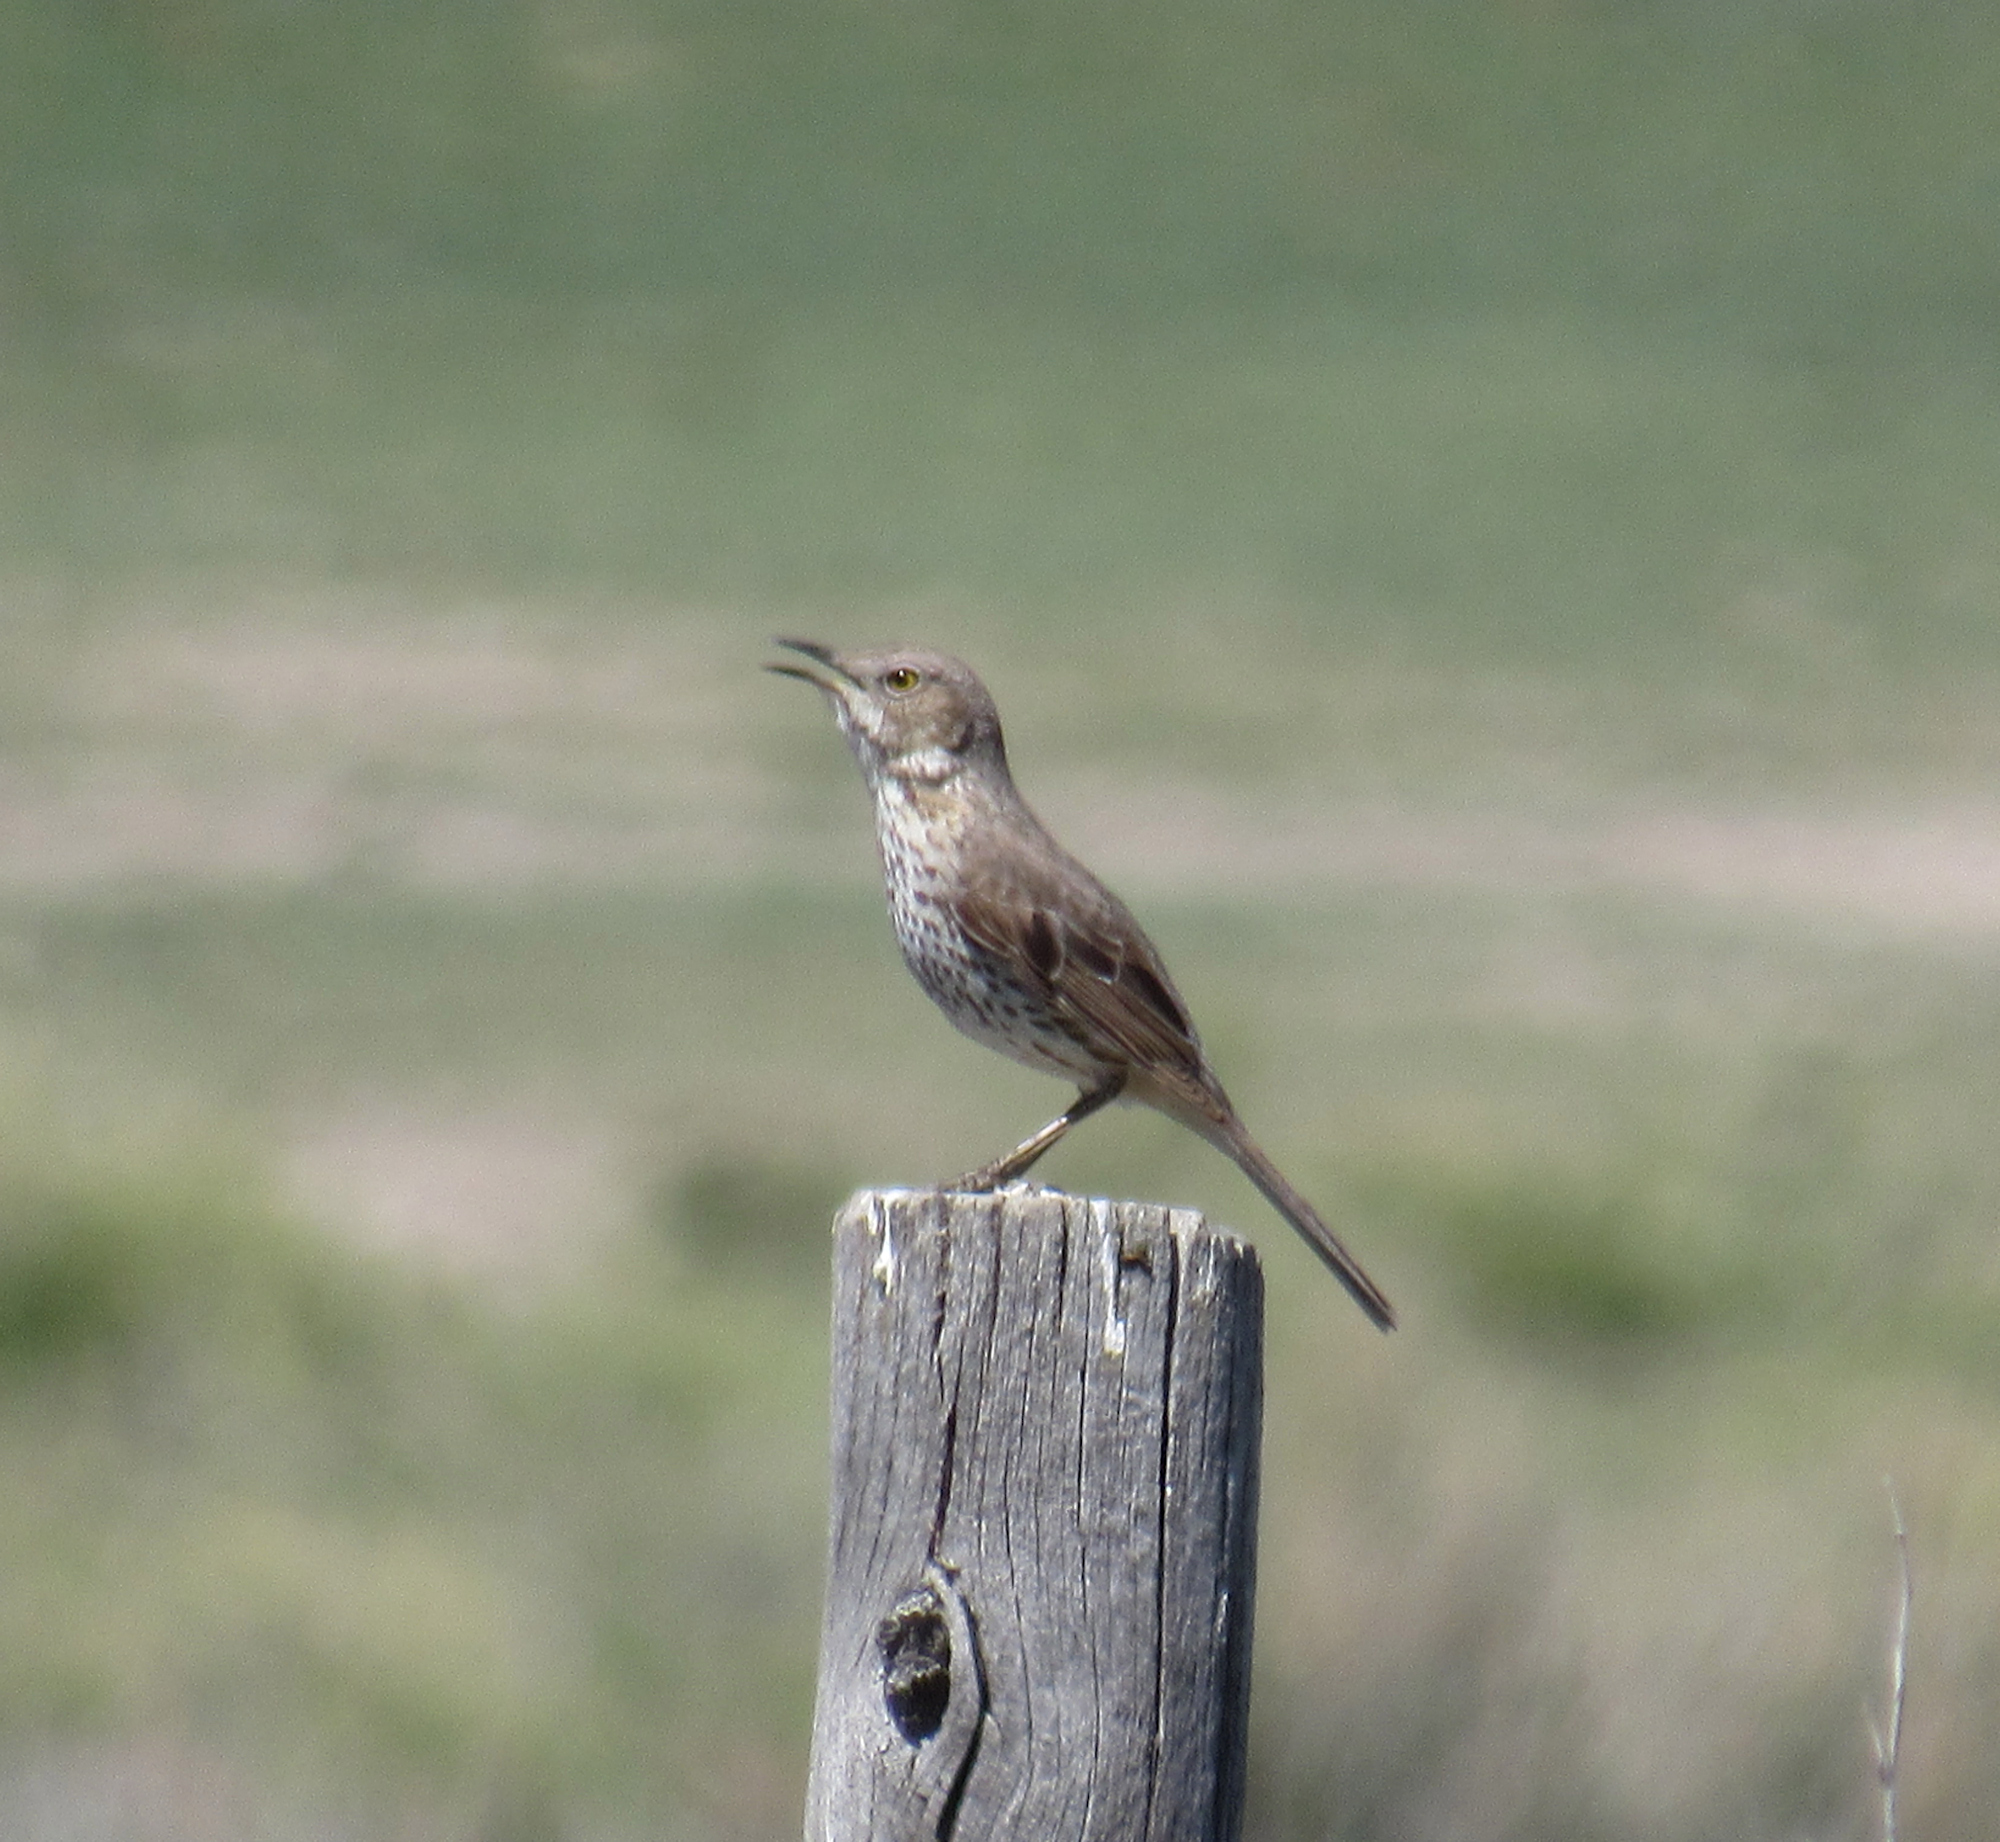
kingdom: Animalia
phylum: Chordata
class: Aves
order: Passeriformes
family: Mimidae
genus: Oreoscoptes
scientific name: Oreoscoptes montanus
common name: Sage thrasher
